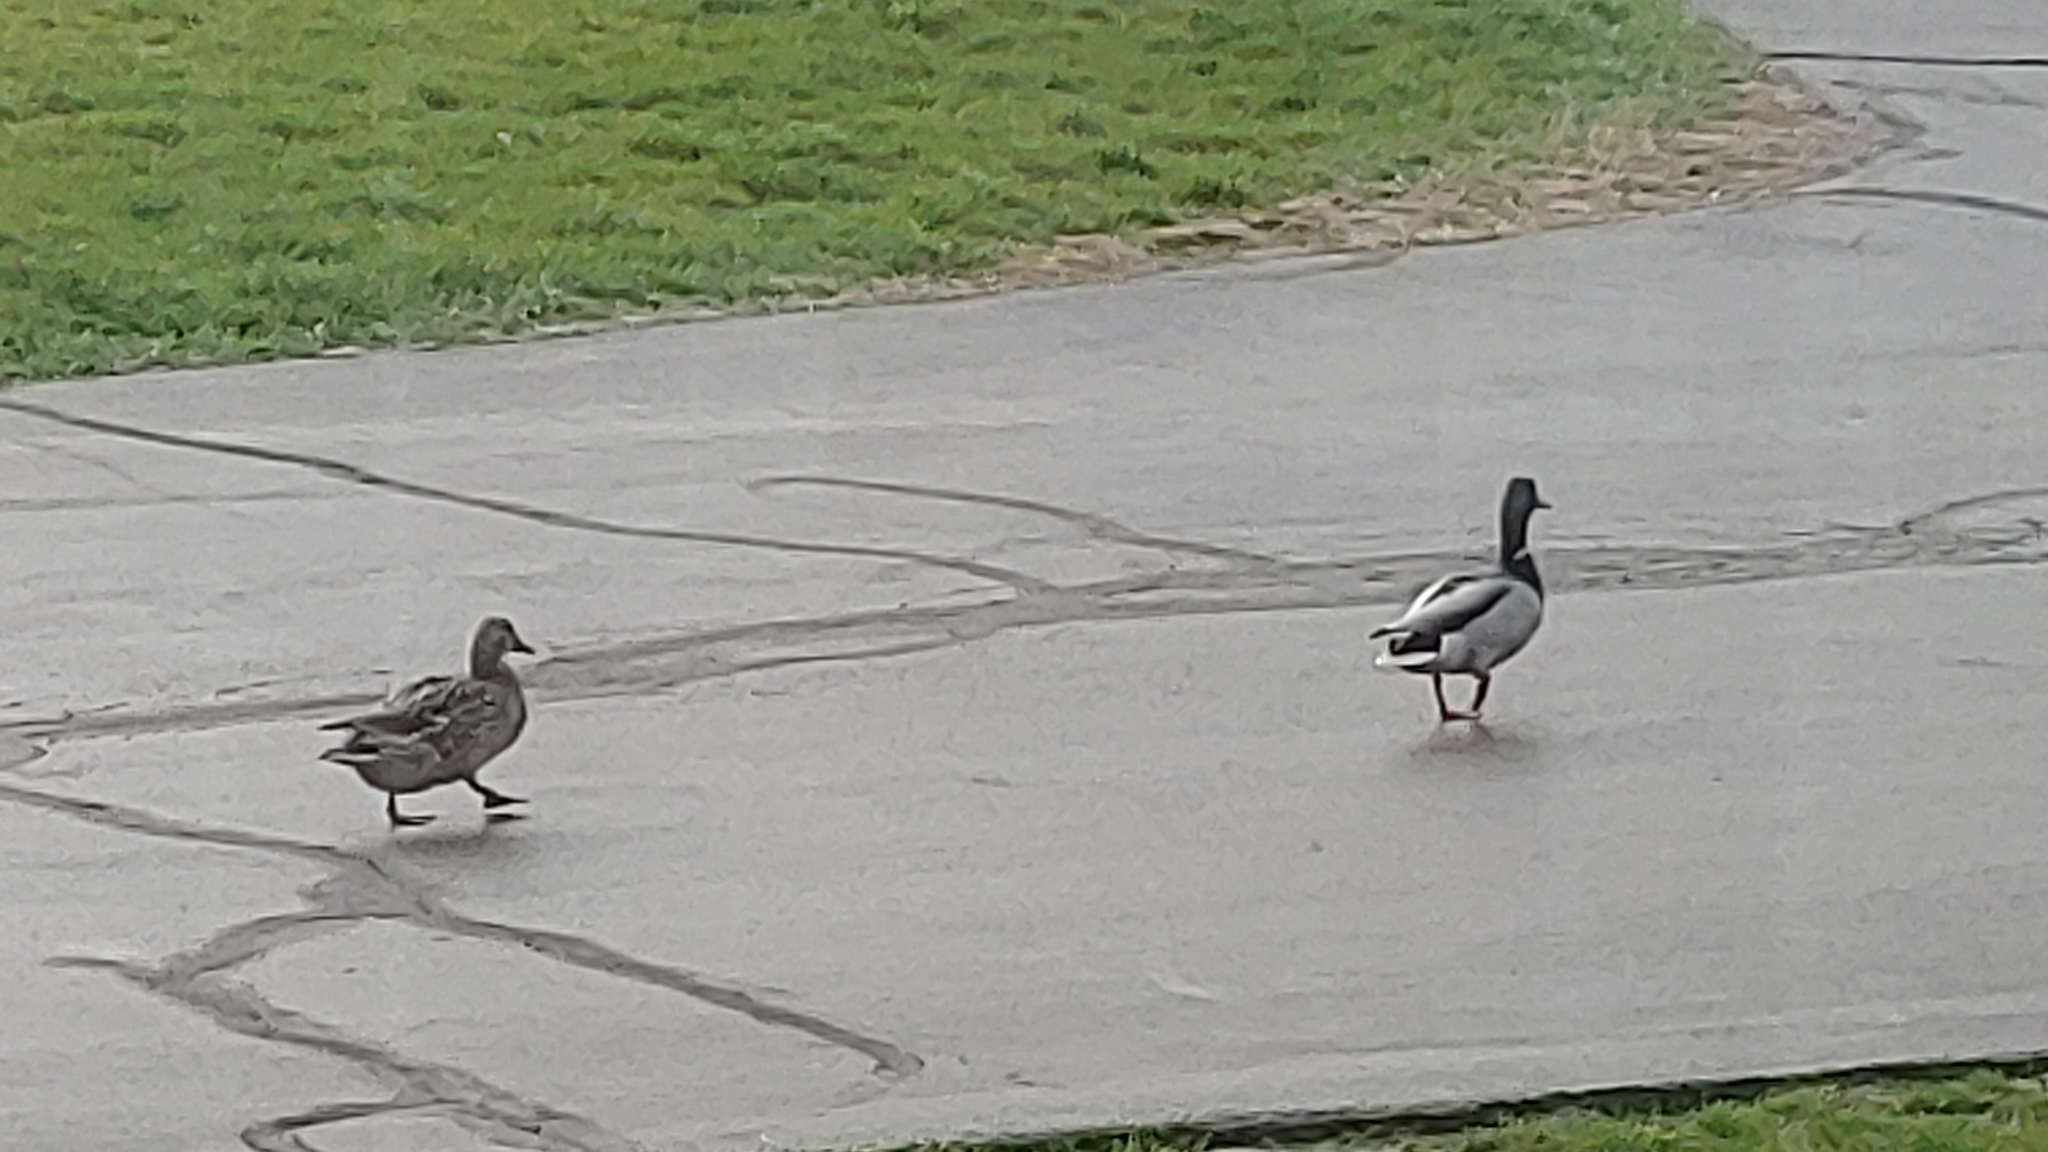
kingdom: Animalia
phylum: Chordata
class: Aves
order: Anseriformes
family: Anatidae
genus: Anas
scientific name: Anas platyrhynchos
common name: Mallard
